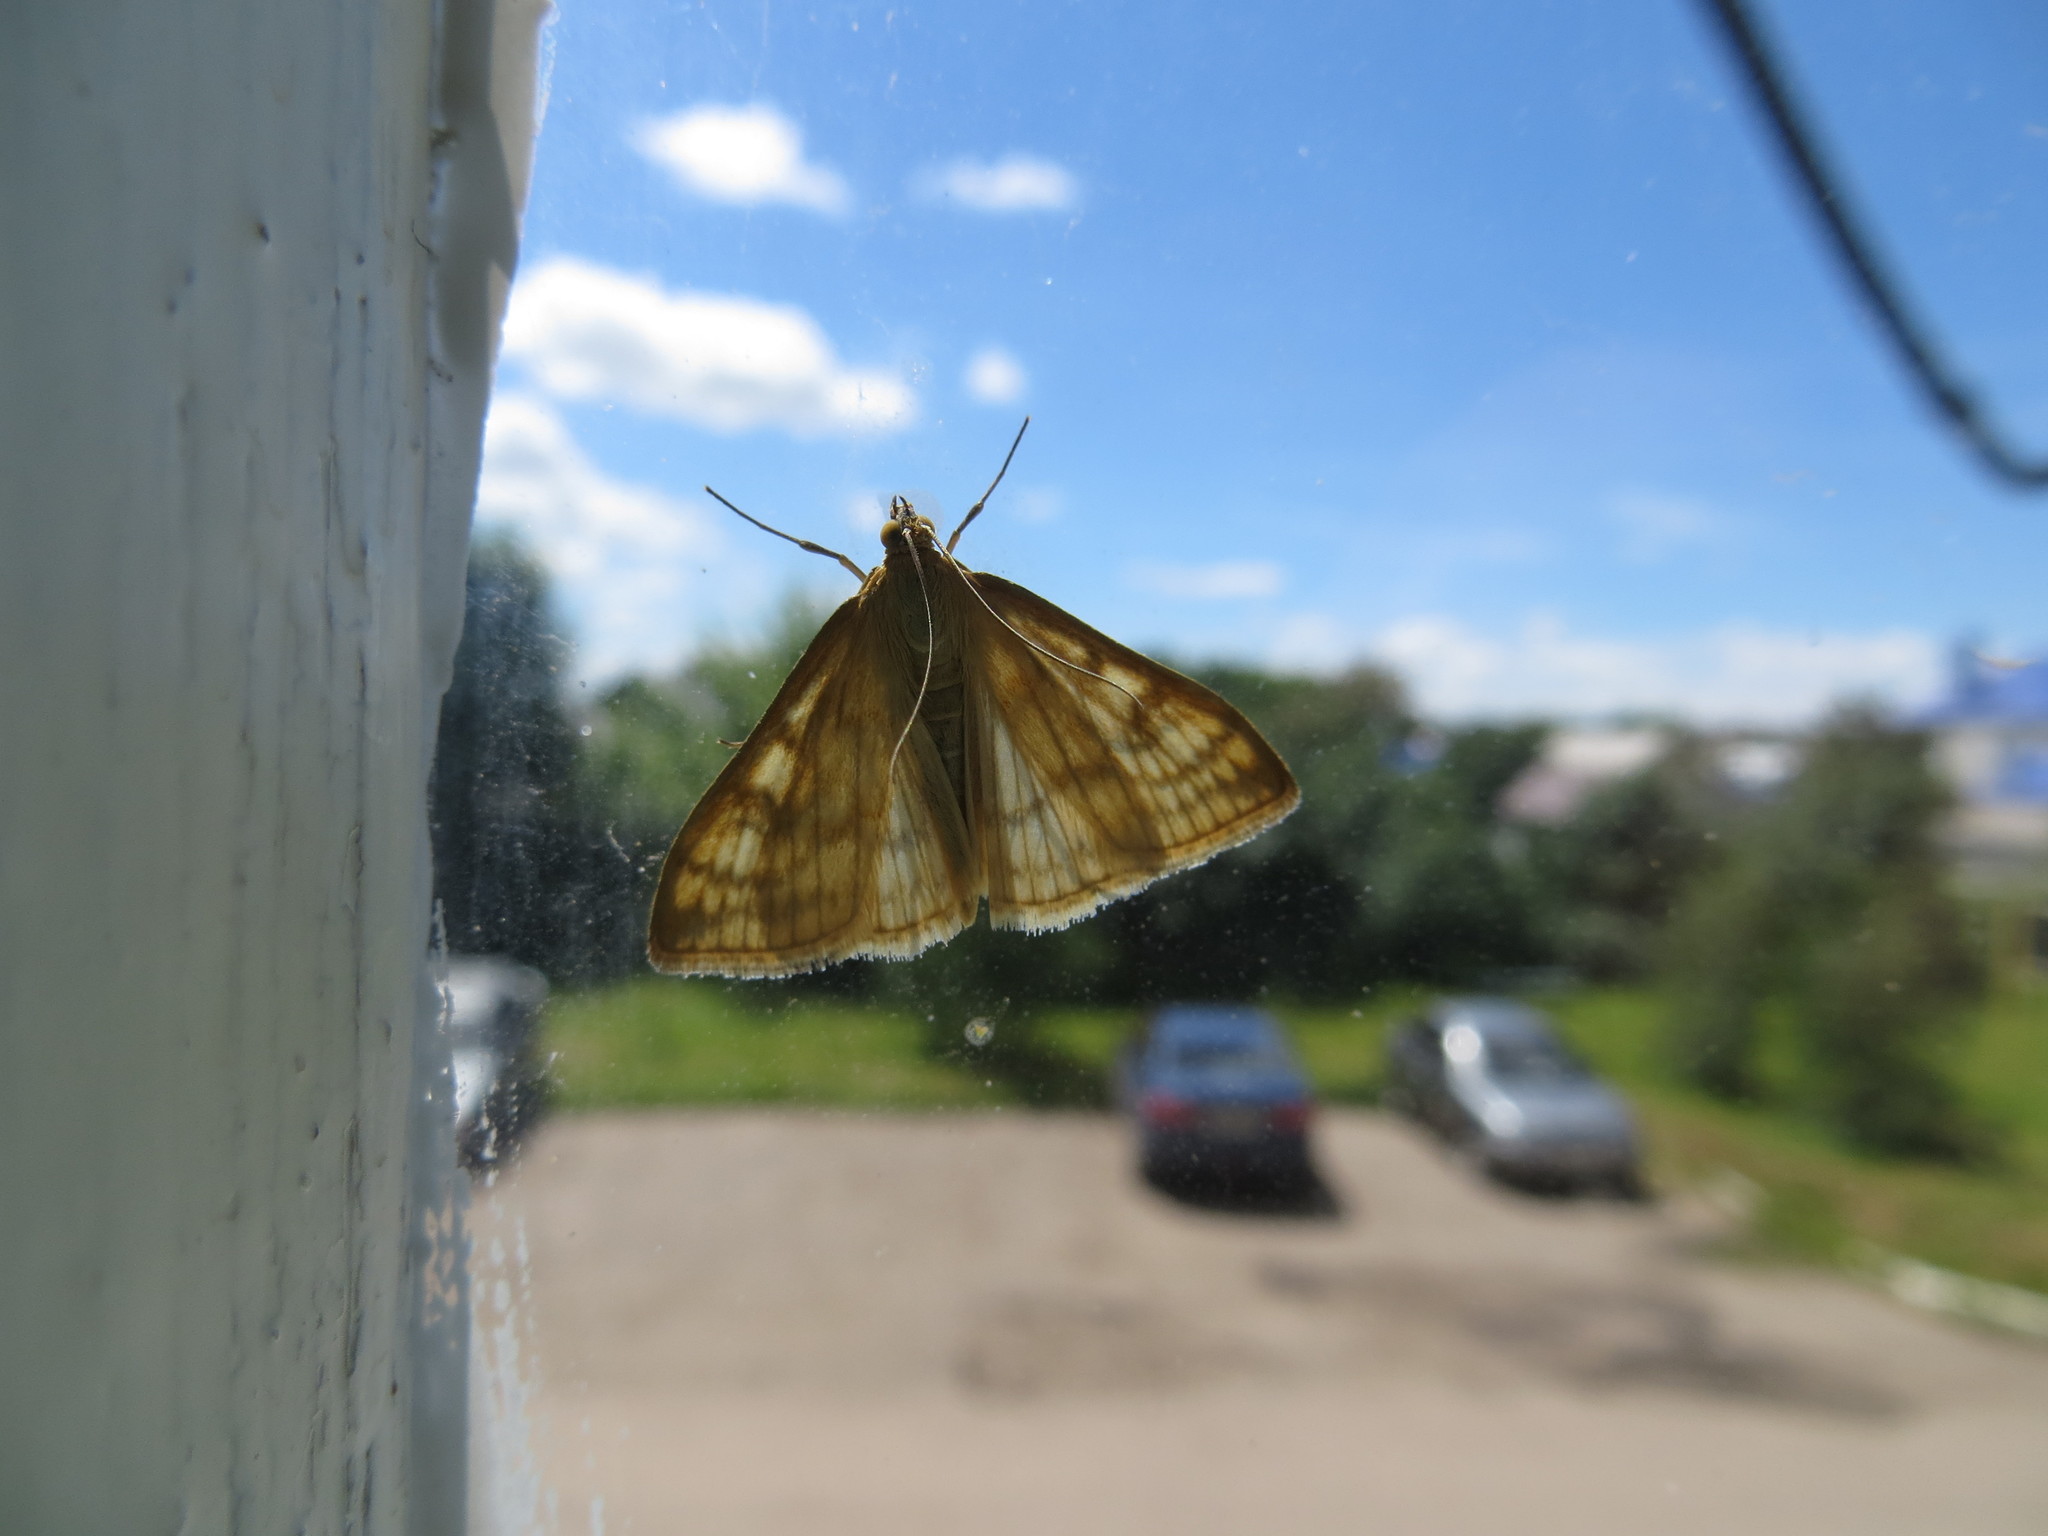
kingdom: Animalia
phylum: Arthropoda
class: Insecta
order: Lepidoptera
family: Crambidae
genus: Sitochroa
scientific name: Sitochroa verticalis
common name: Lesser pearl
